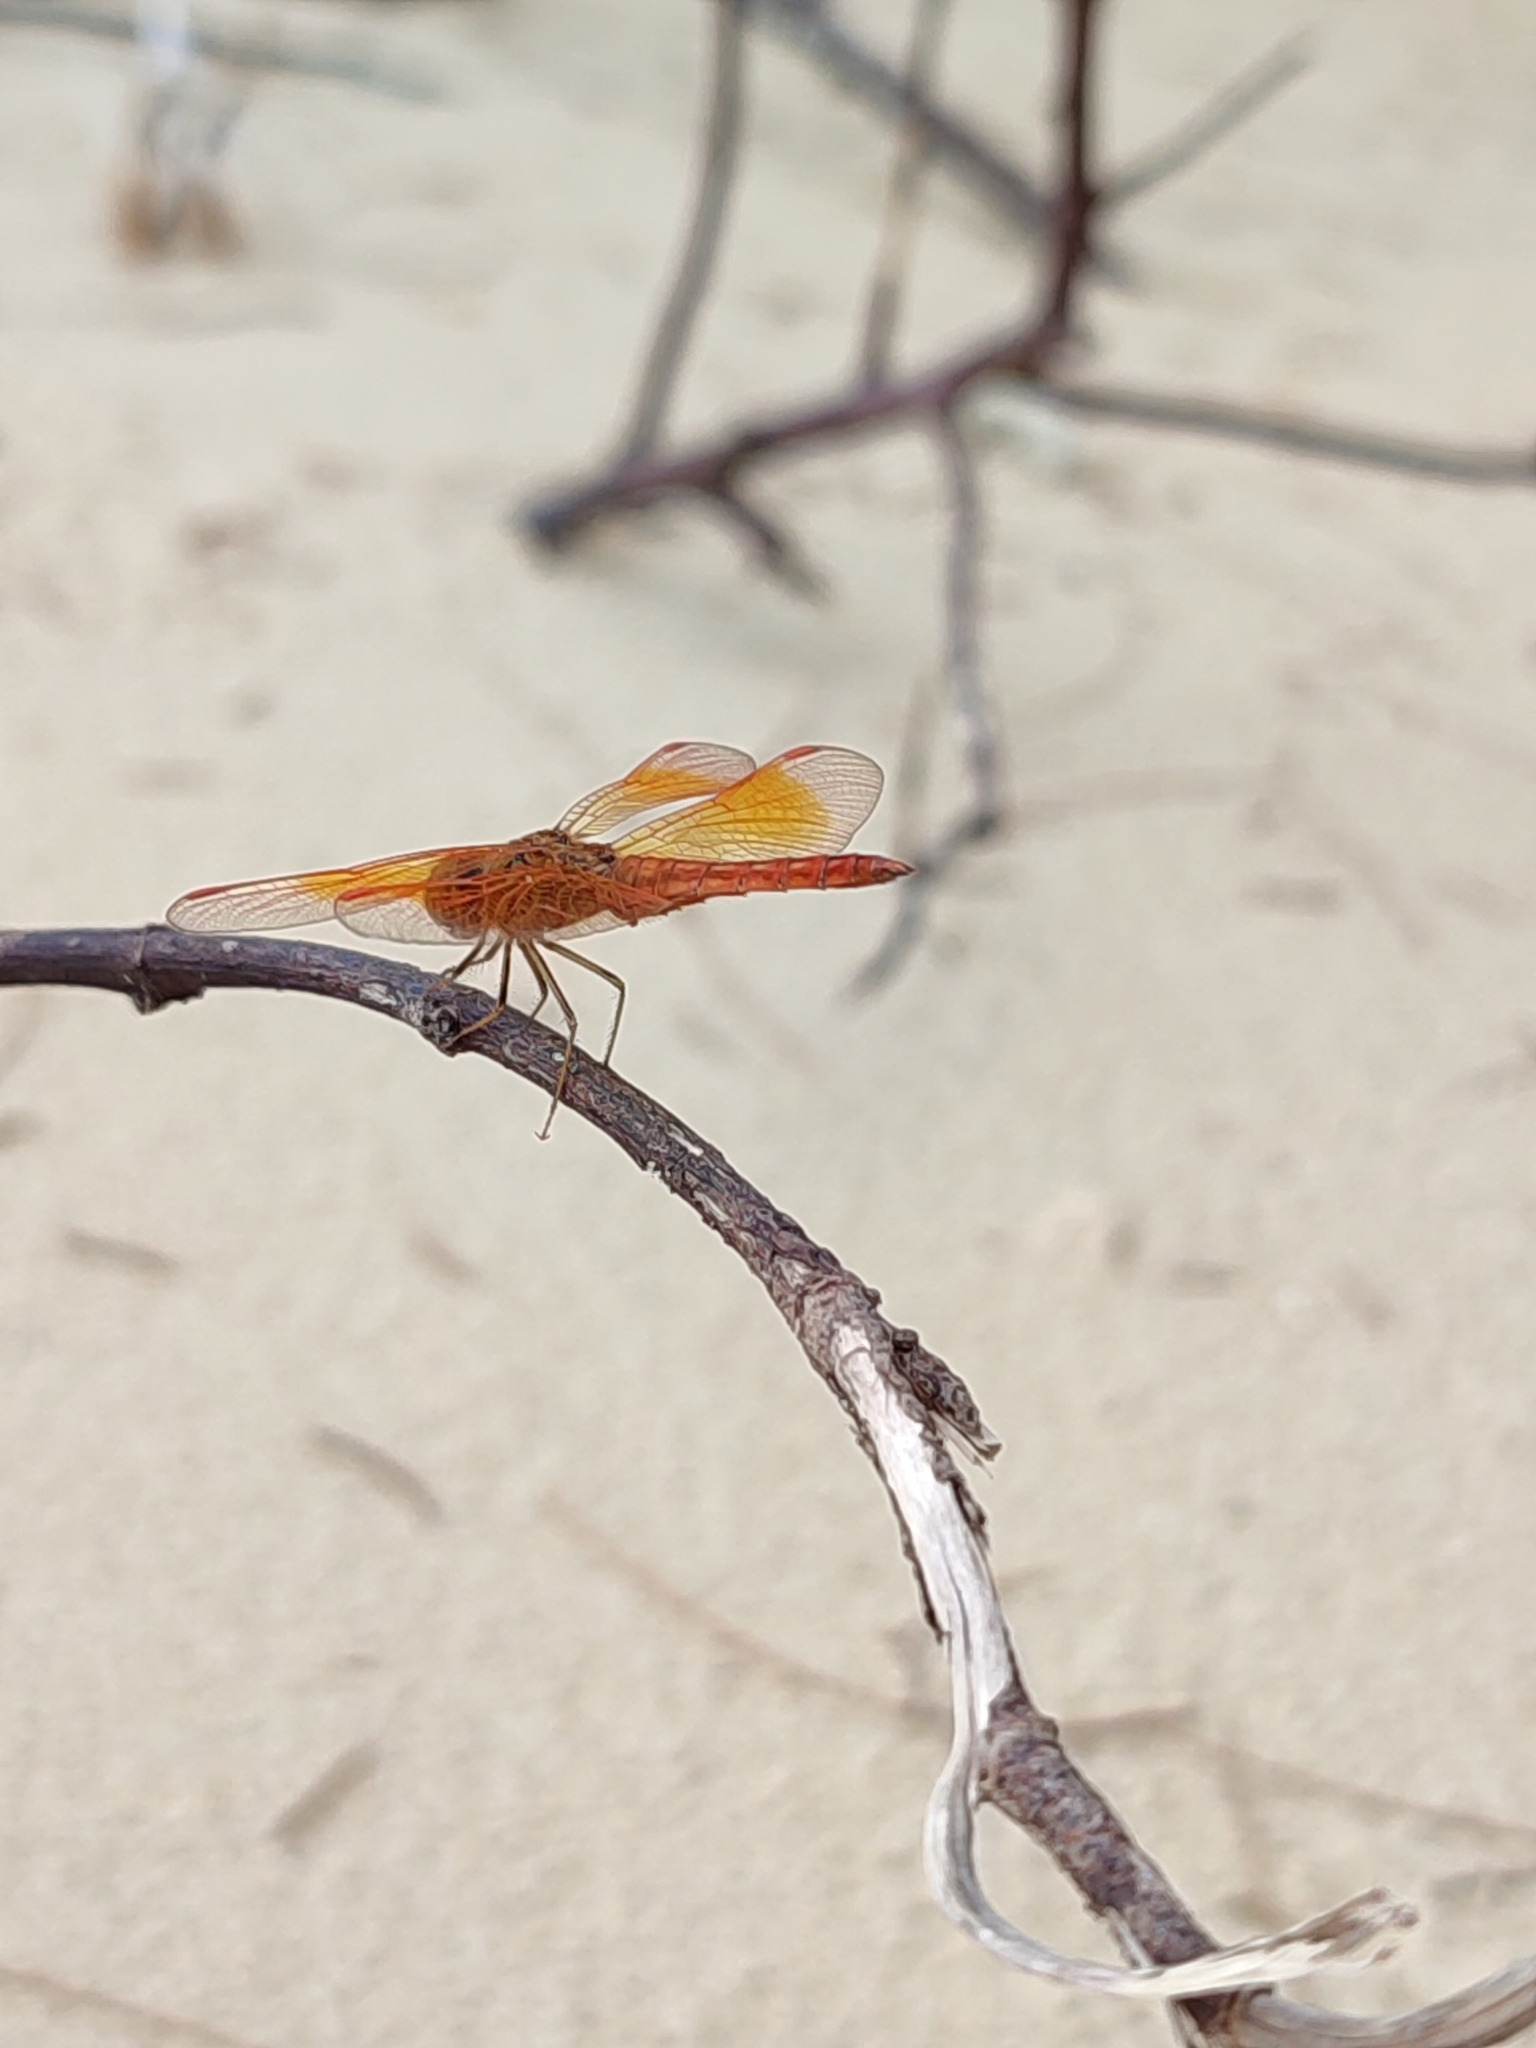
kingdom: Animalia
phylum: Arthropoda
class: Insecta
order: Odonata
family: Libellulidae
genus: Brachythemis
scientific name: Brachythemis contaminata
